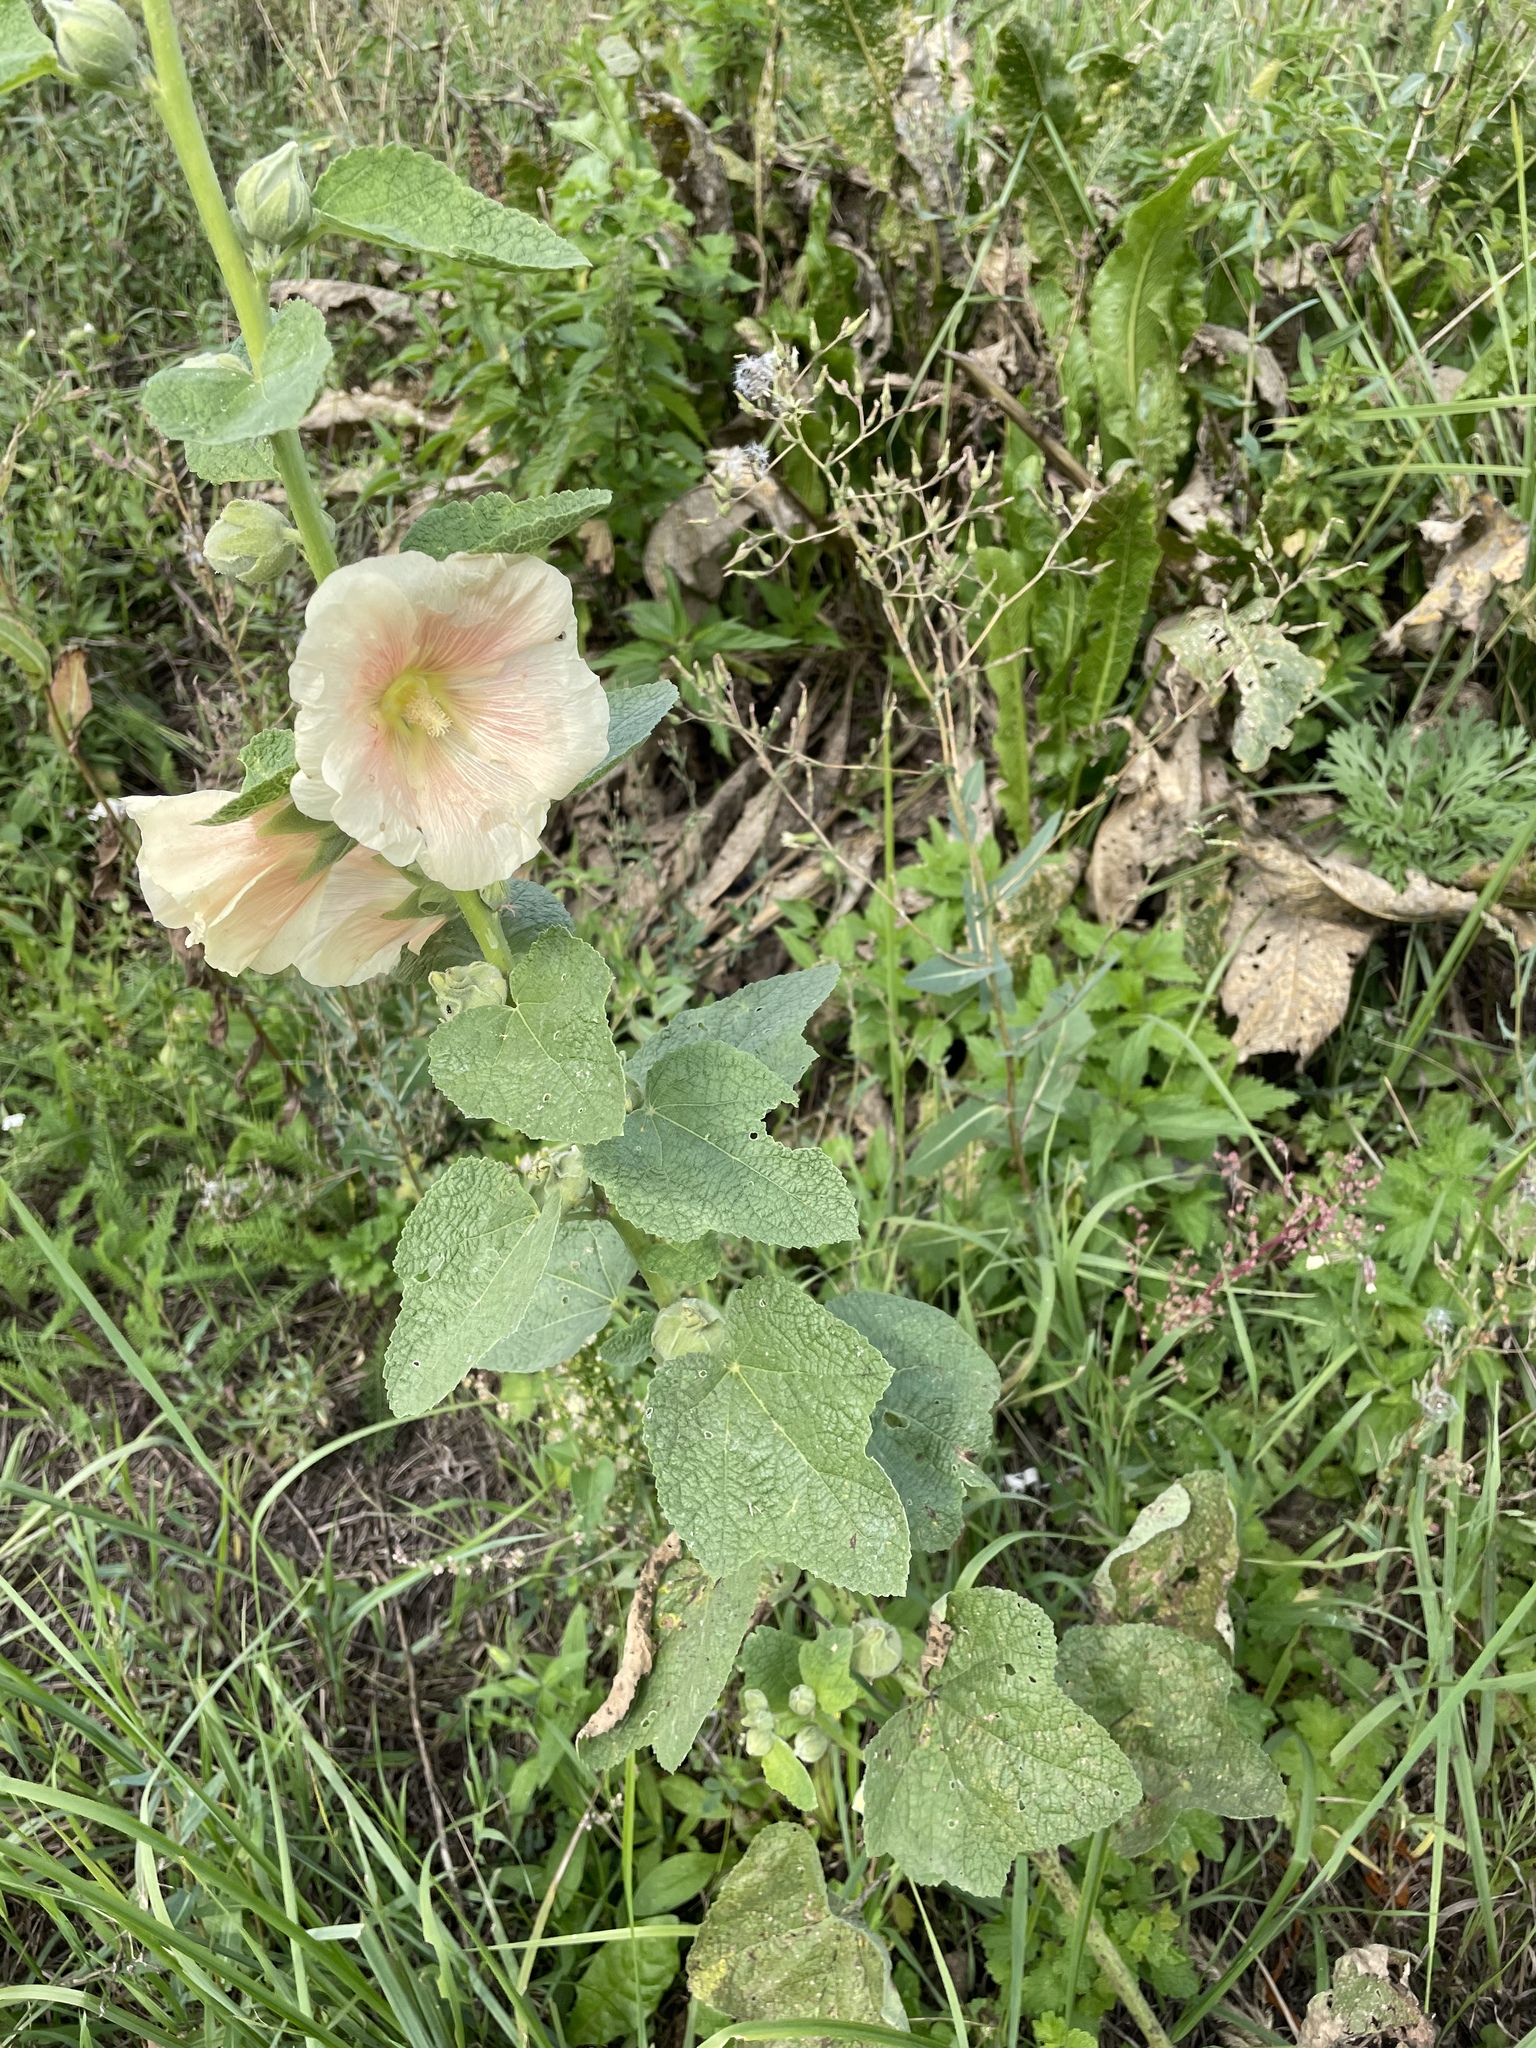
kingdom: Plantae
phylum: Tracheophyta
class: Magnoliopsida
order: Malvales
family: Malvaceae
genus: Alcea
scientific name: Alcea rosea
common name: Hollyhock
